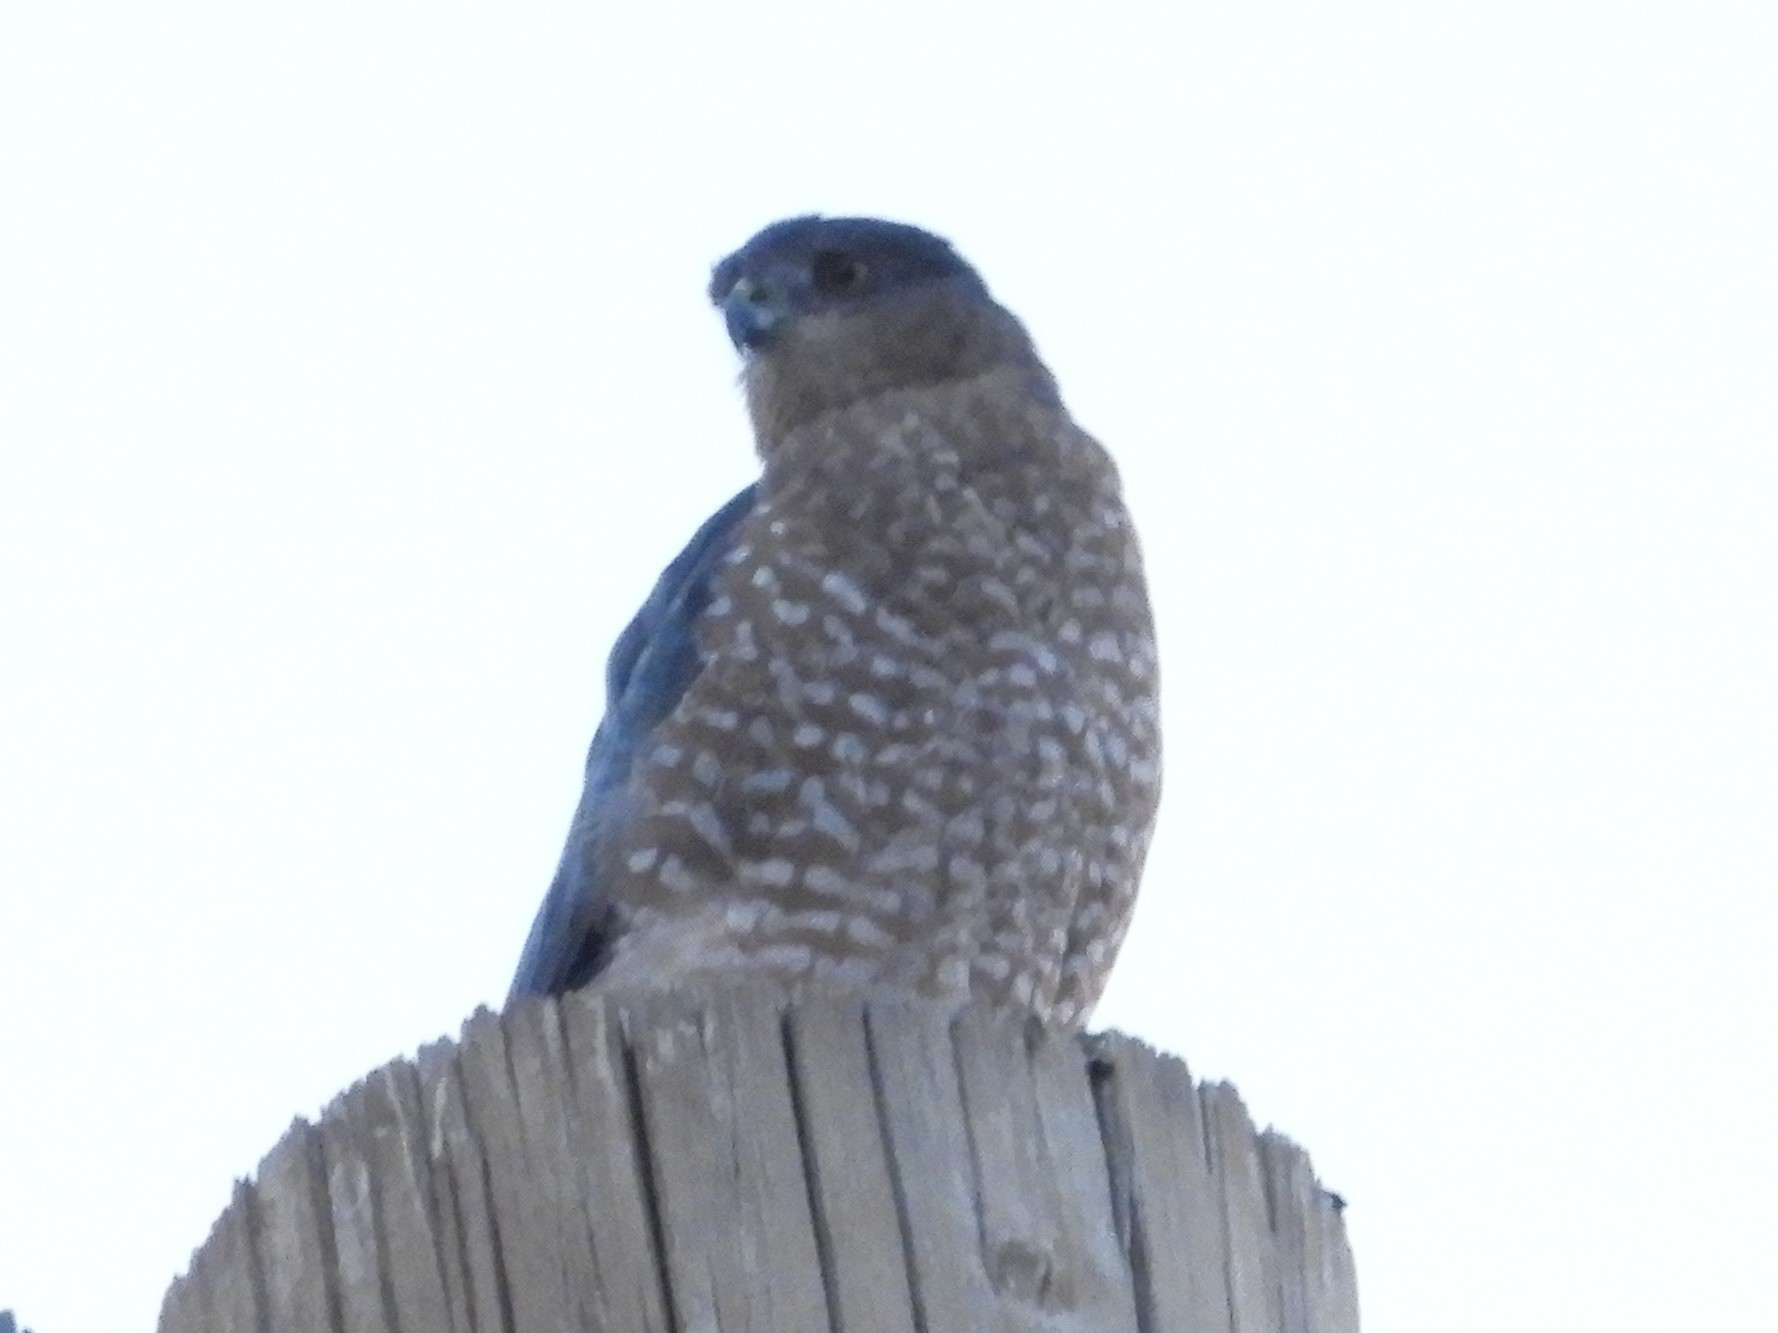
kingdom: Animalia
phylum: Chordata
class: Aves
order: Accipitriformes
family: Accipitridae
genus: Accipiter
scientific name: Accipiter cooperii
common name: Cooper's hawk
